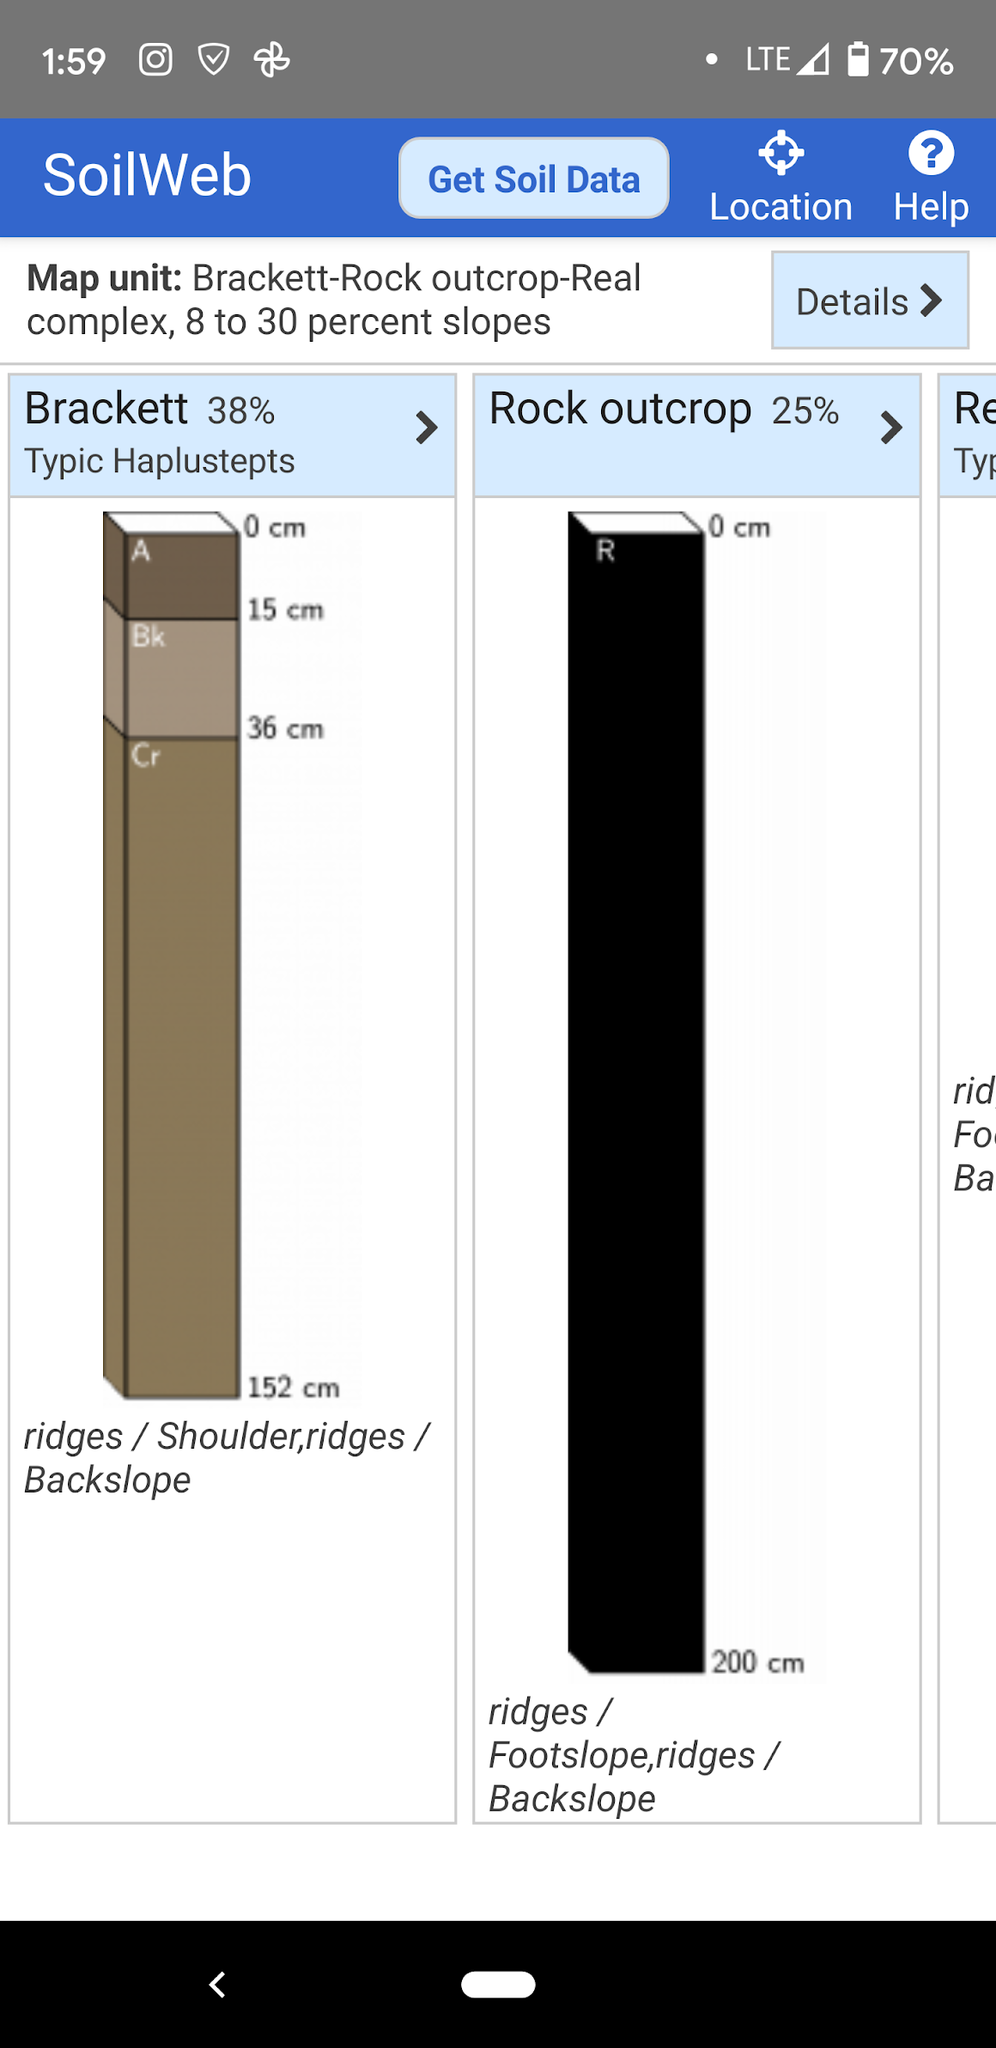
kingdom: Plantae
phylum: Tracheophyta
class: Liliopsida
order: Asparagales
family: Orchidaceae
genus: Bletia
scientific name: Bletia nitida
